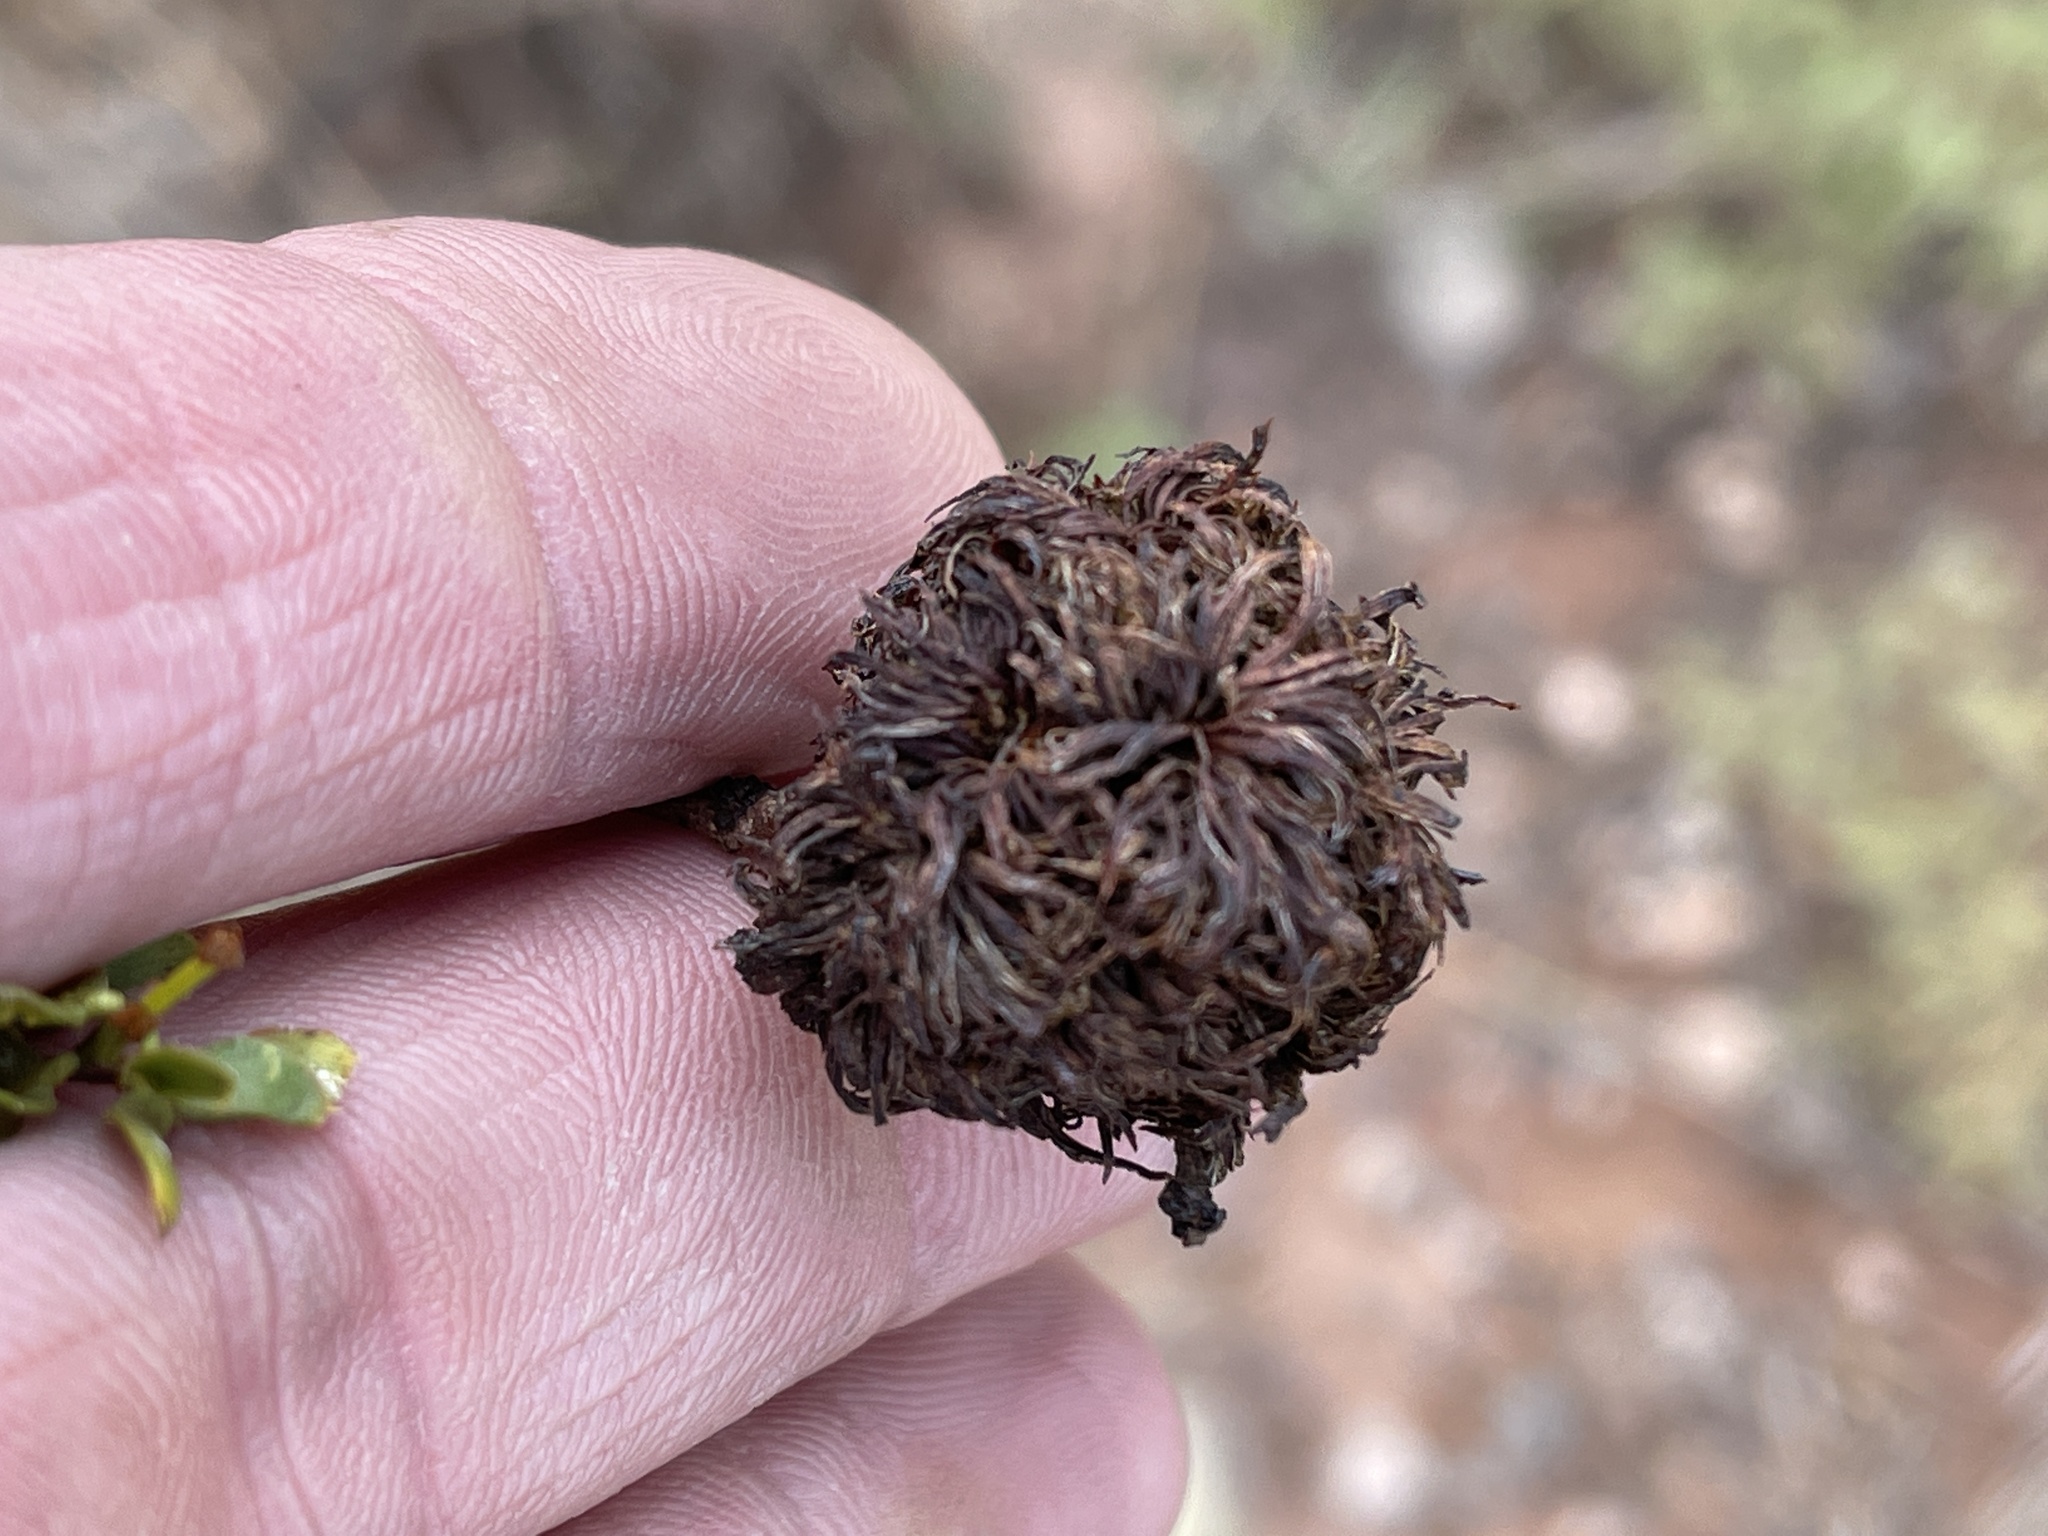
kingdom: Animalia
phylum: Arthropoda
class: Insecta
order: Diptera
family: Cecidomyiidae
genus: Asphondylia
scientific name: Asphondylia auripila
